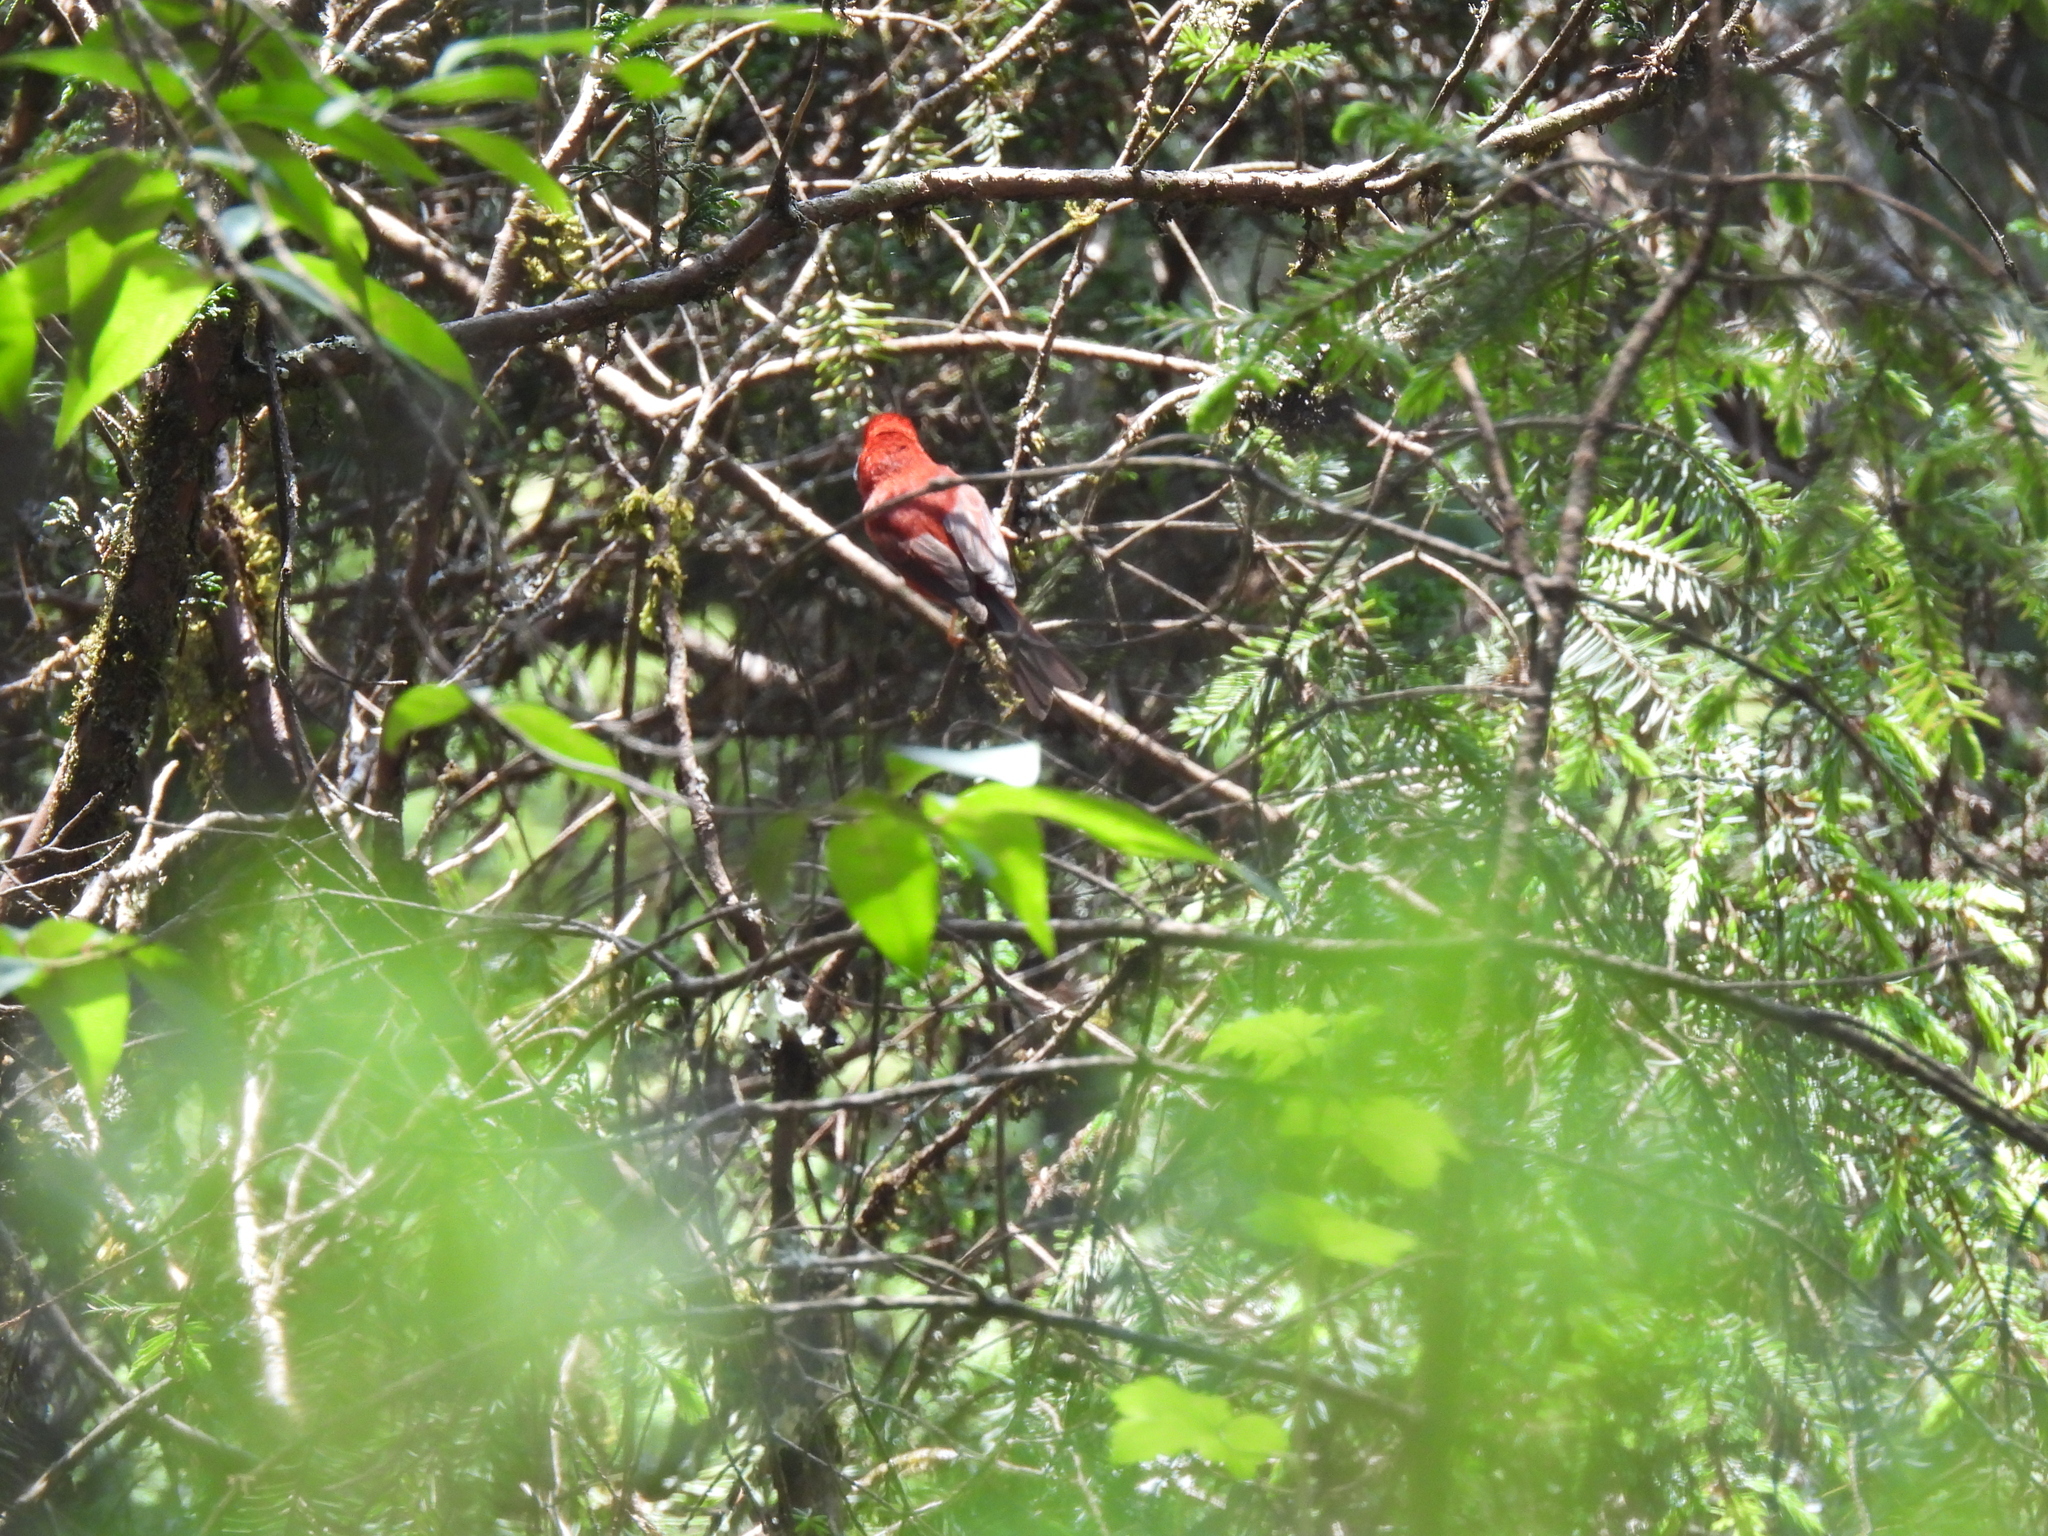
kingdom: Animalia
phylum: Chordata
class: Aves
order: Passeriformes
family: Parulidae
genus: Cardellina
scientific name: Cardellina rubra
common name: Red warbler
